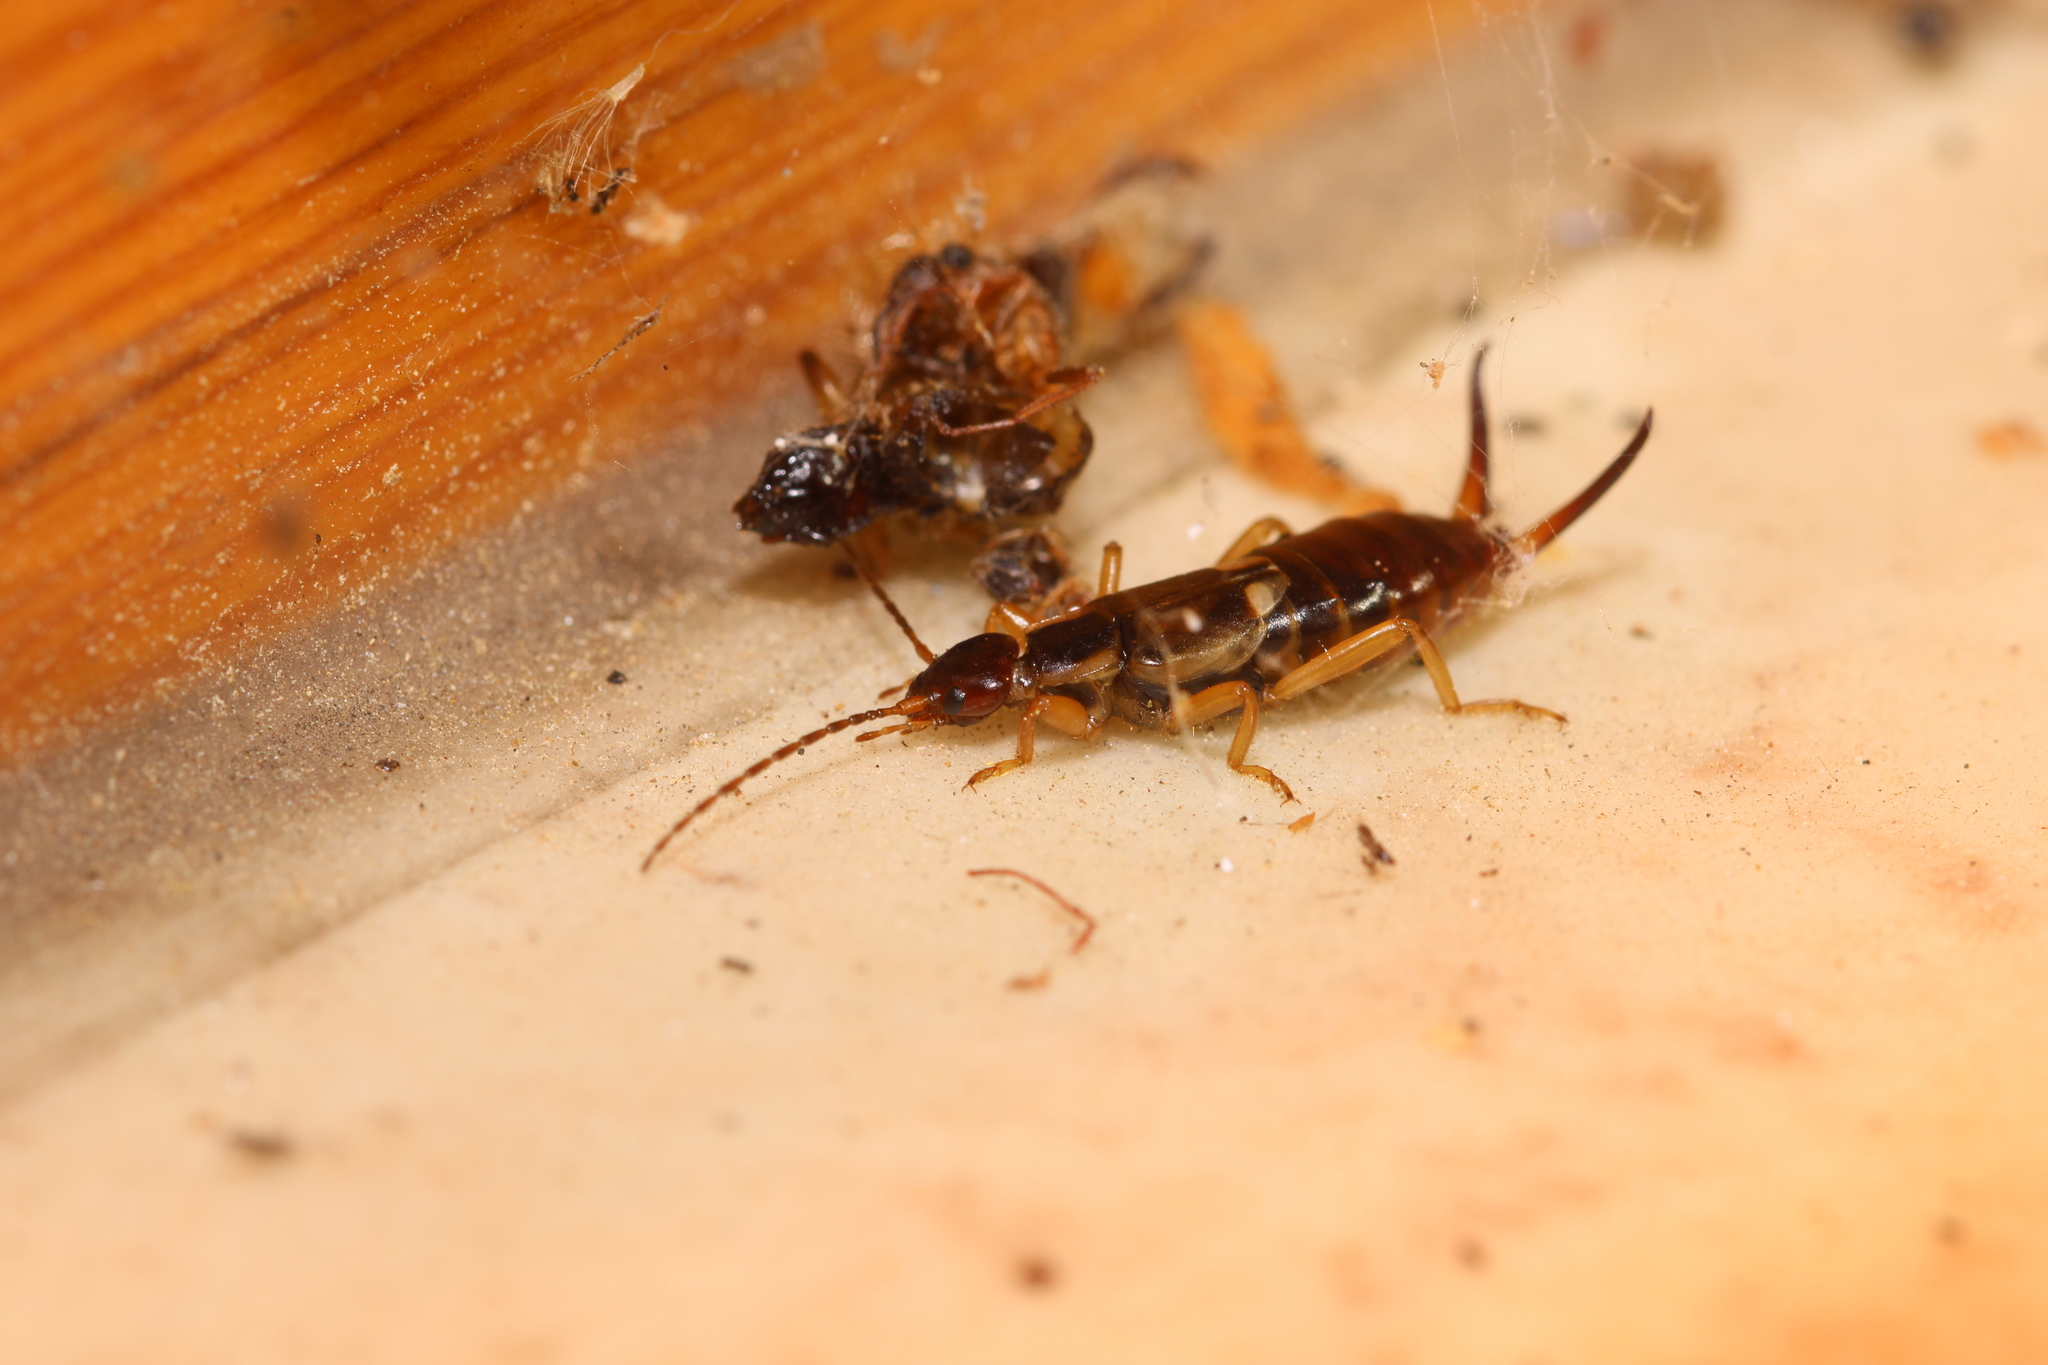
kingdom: Animalia
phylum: Arthropoda
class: Insecta
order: Dermaptera
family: Forficulidae
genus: Forficula
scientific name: Forficula
